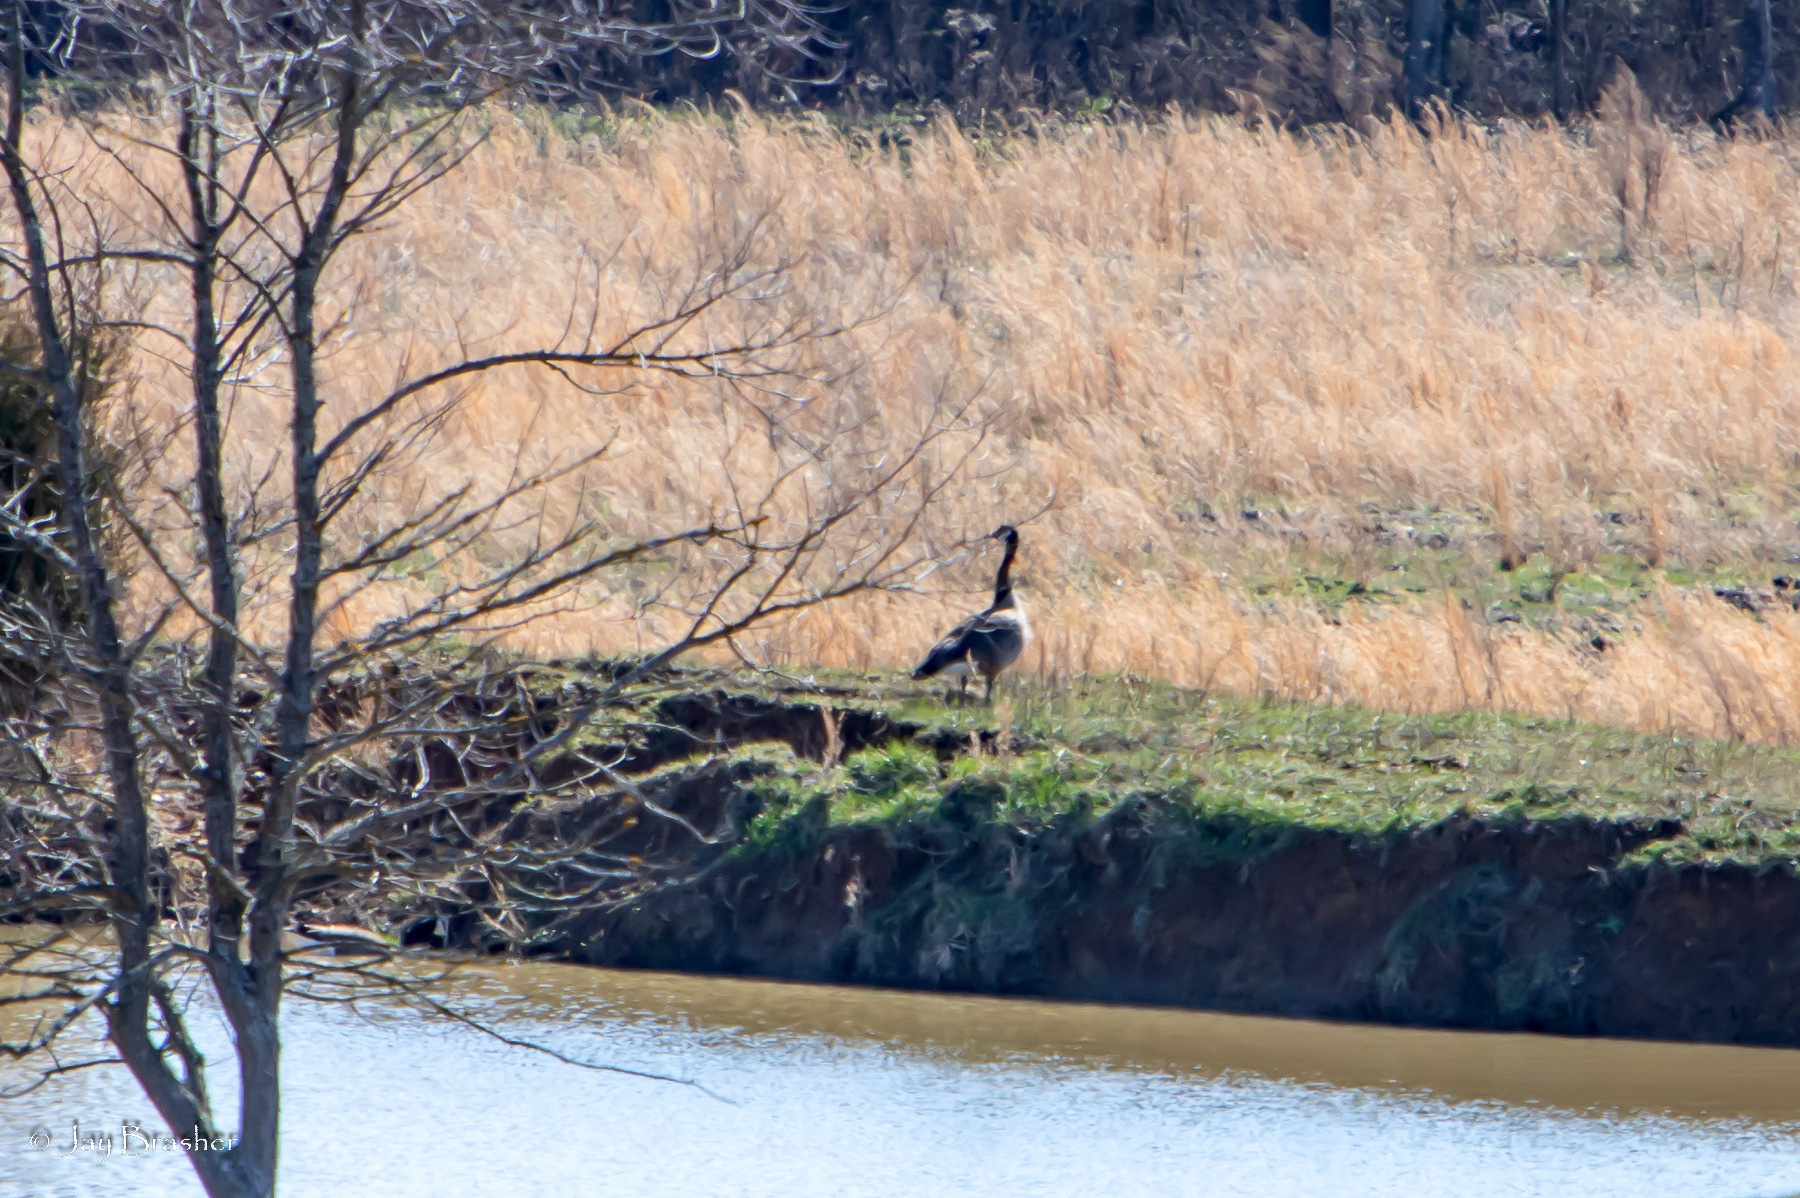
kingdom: Animalia
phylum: Chordata
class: Aves
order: Anseriformes
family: Anatidae
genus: Branta
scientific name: Branta canadensis
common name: Canada goose
